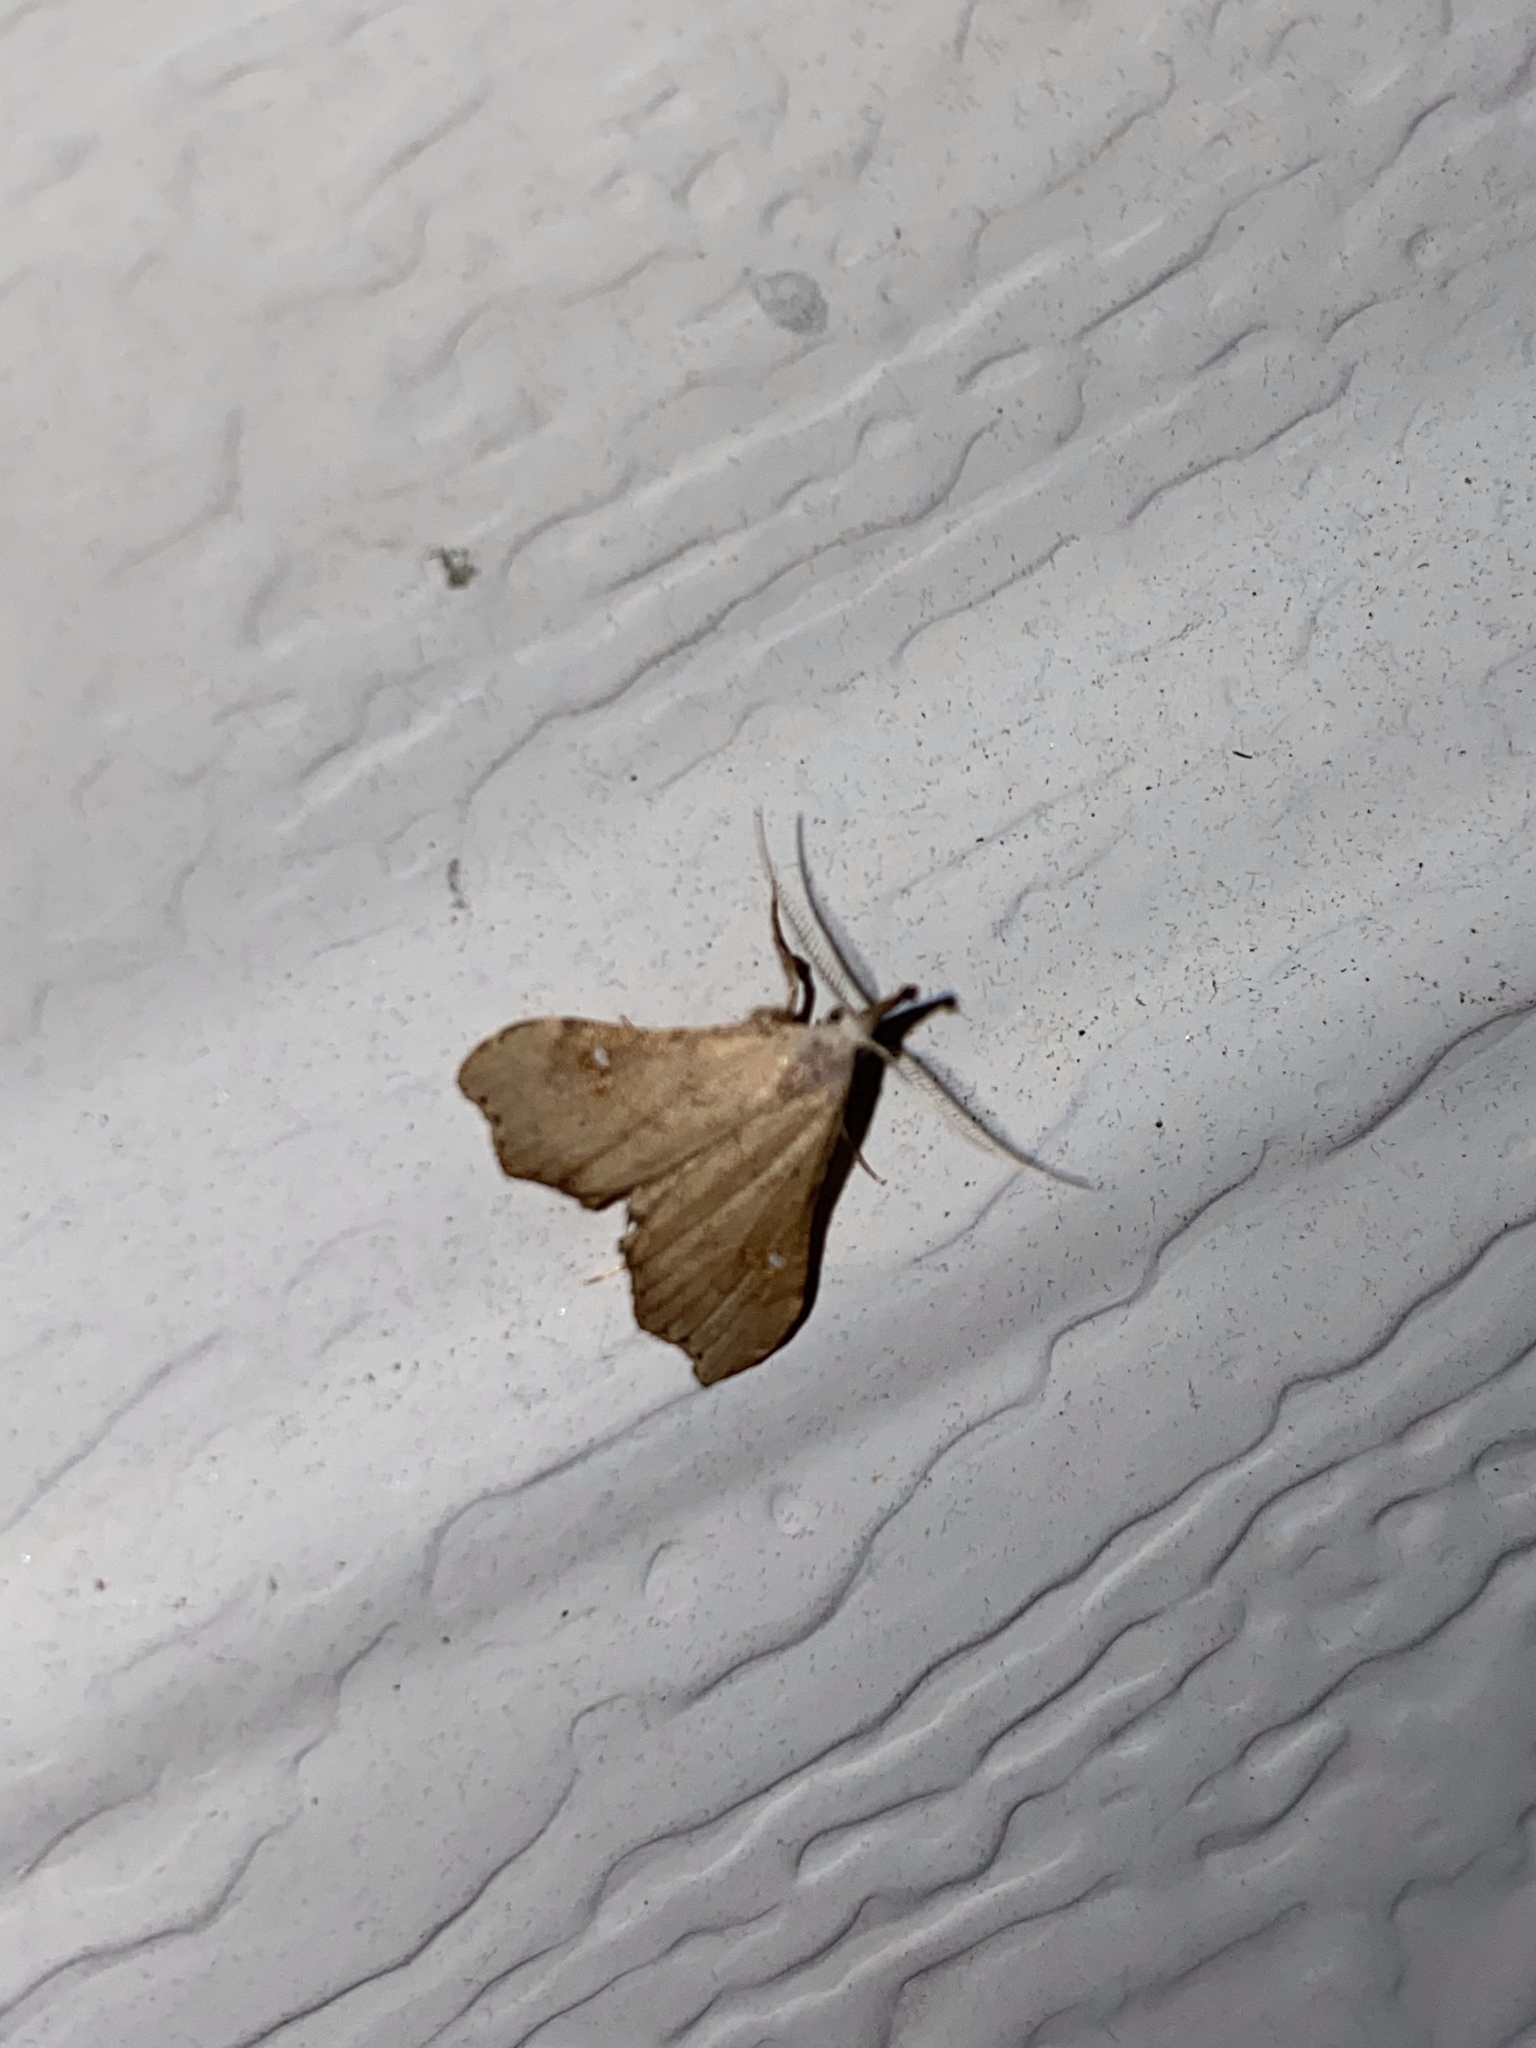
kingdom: Animalia
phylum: Arthropoda
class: Insecta
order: Lepidoptera
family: Erebidae
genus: Redectis
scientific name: Redectis vitrea
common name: White-spotted redectis
